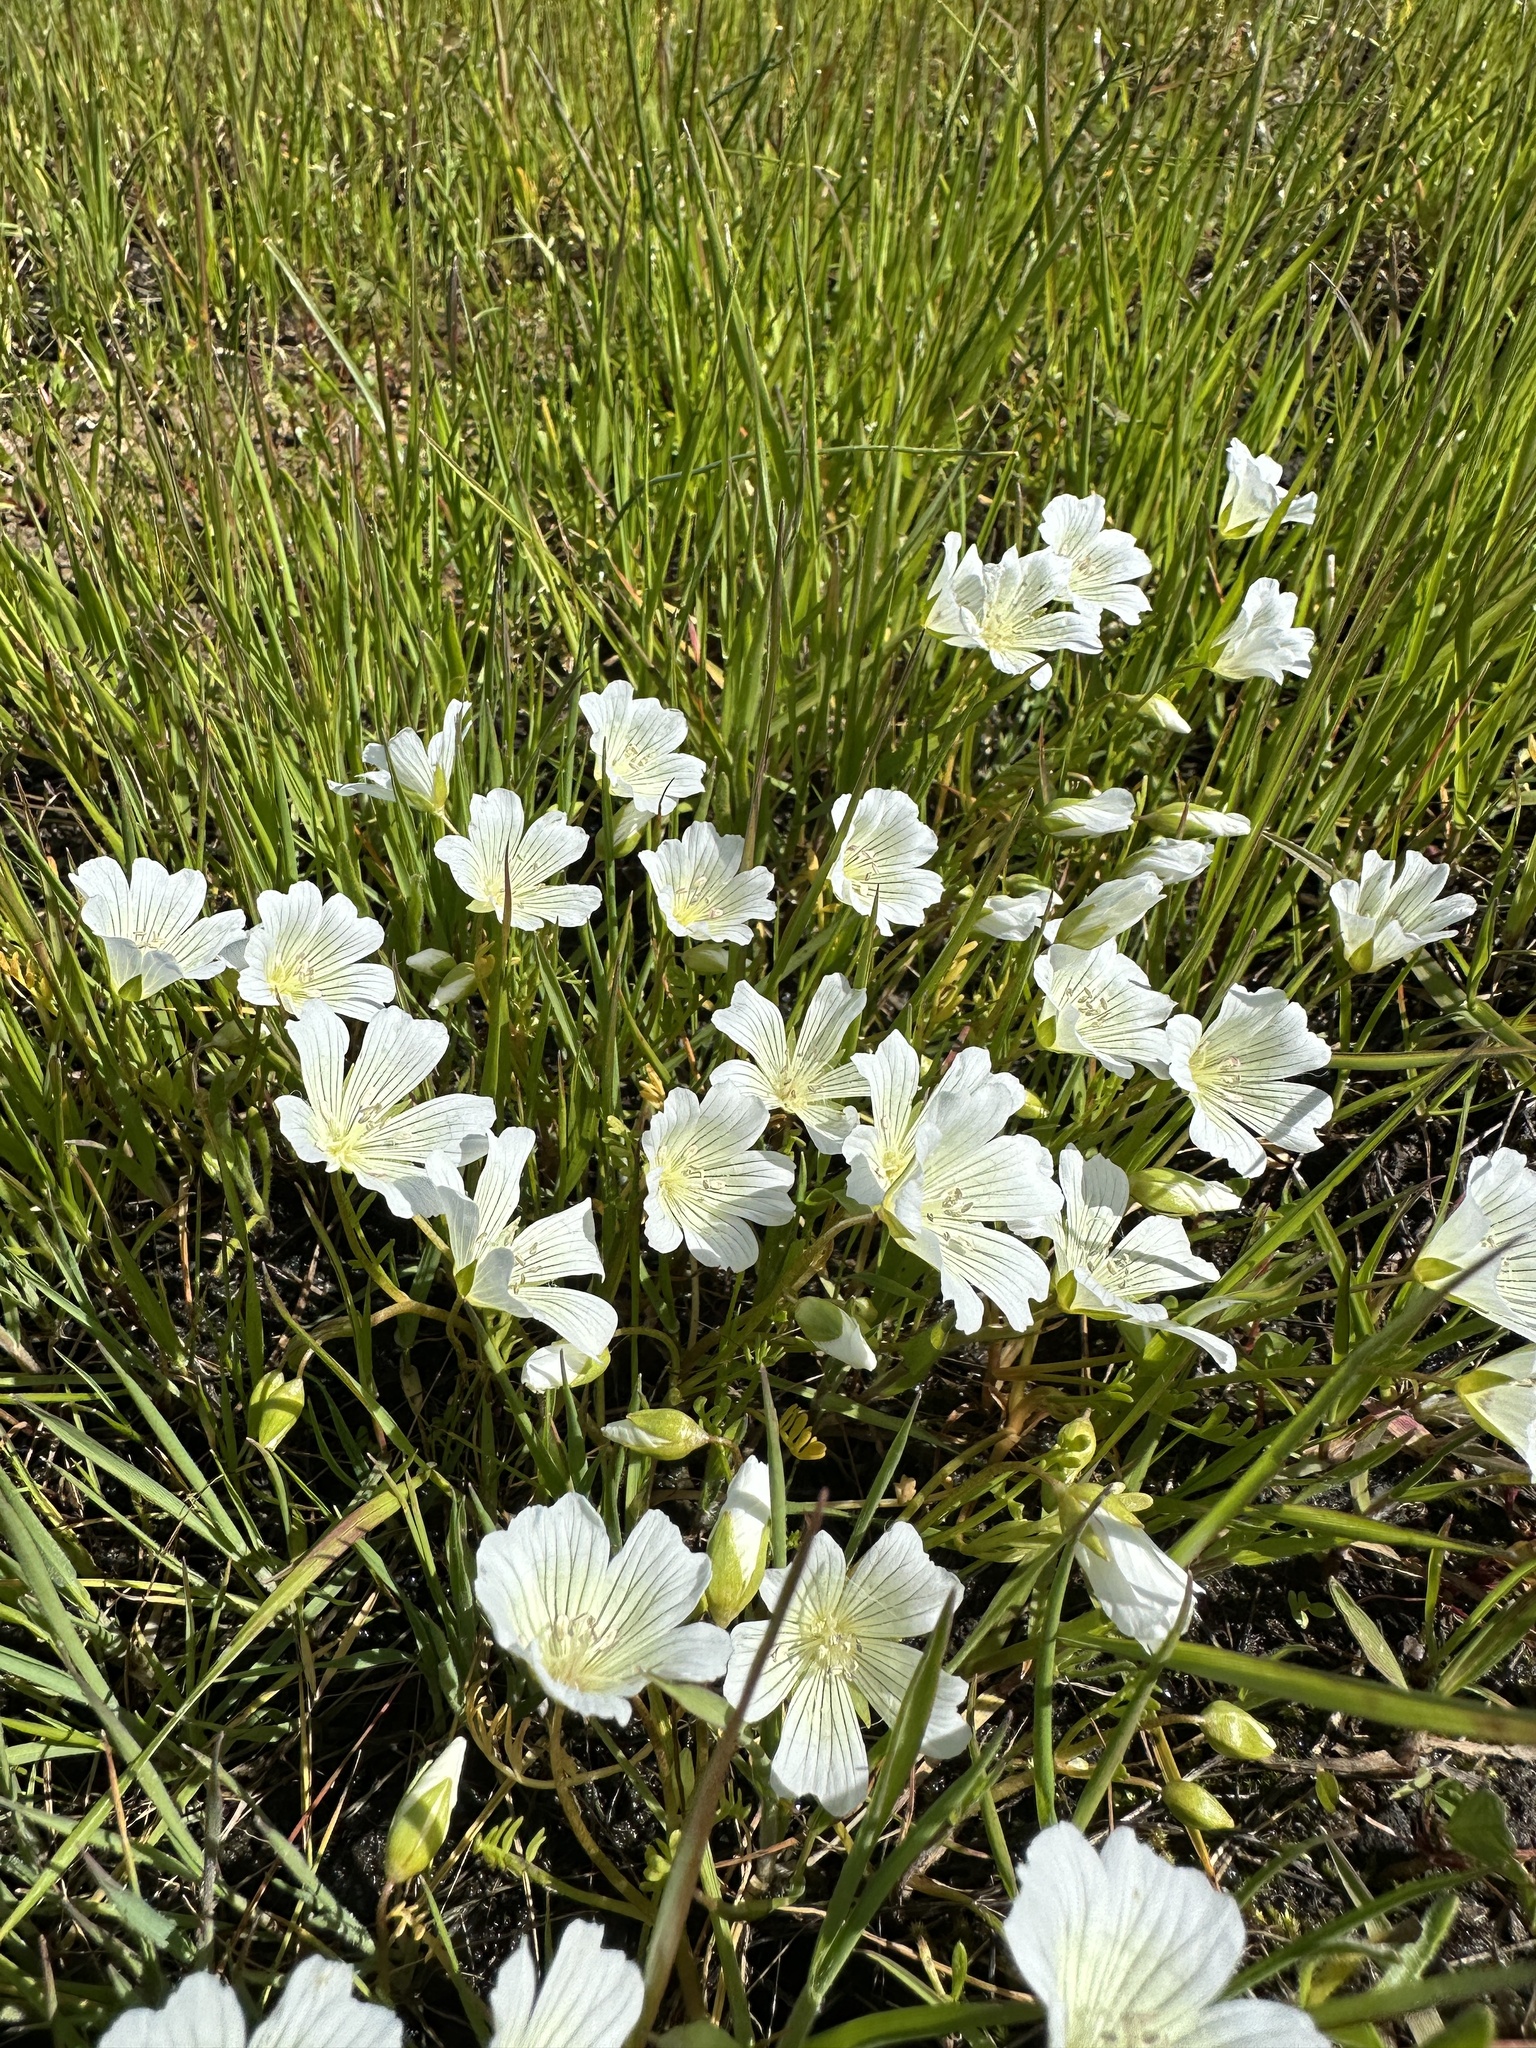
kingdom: Plantae
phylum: Tracheophyta
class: Magnoliopsida
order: Brassicales
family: Limnanthaceae
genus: Limnanthes
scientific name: Limnanthes douglasii
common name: Meadow-foam
